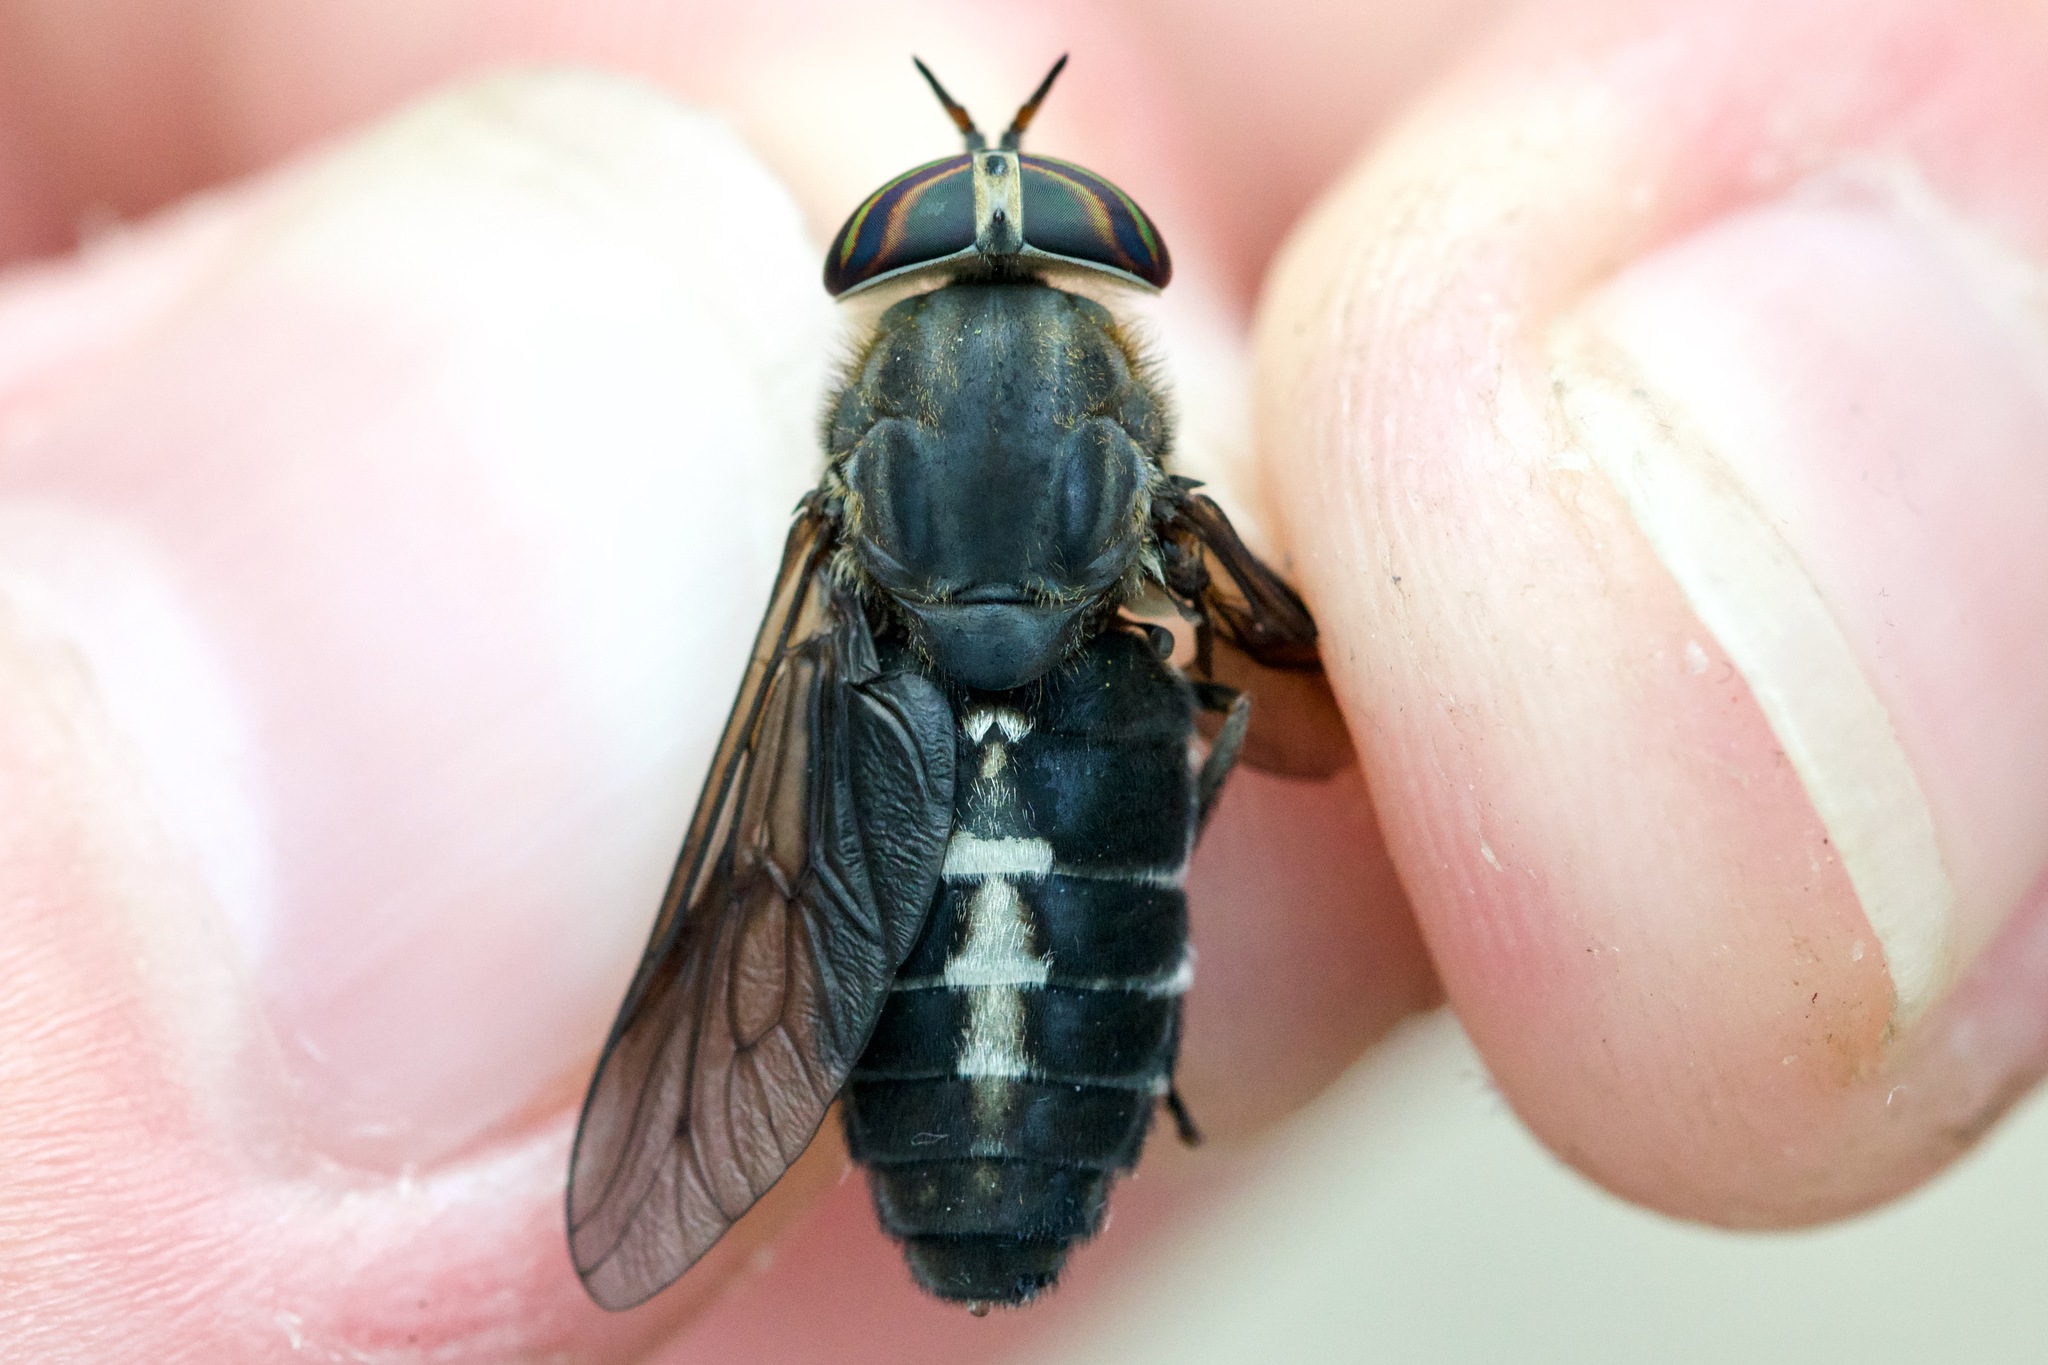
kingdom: Animalia
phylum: Arthropoda
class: Insecta
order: Diptera
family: Tabanidae
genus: Hybomitra
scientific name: Hybomitra sodalis
